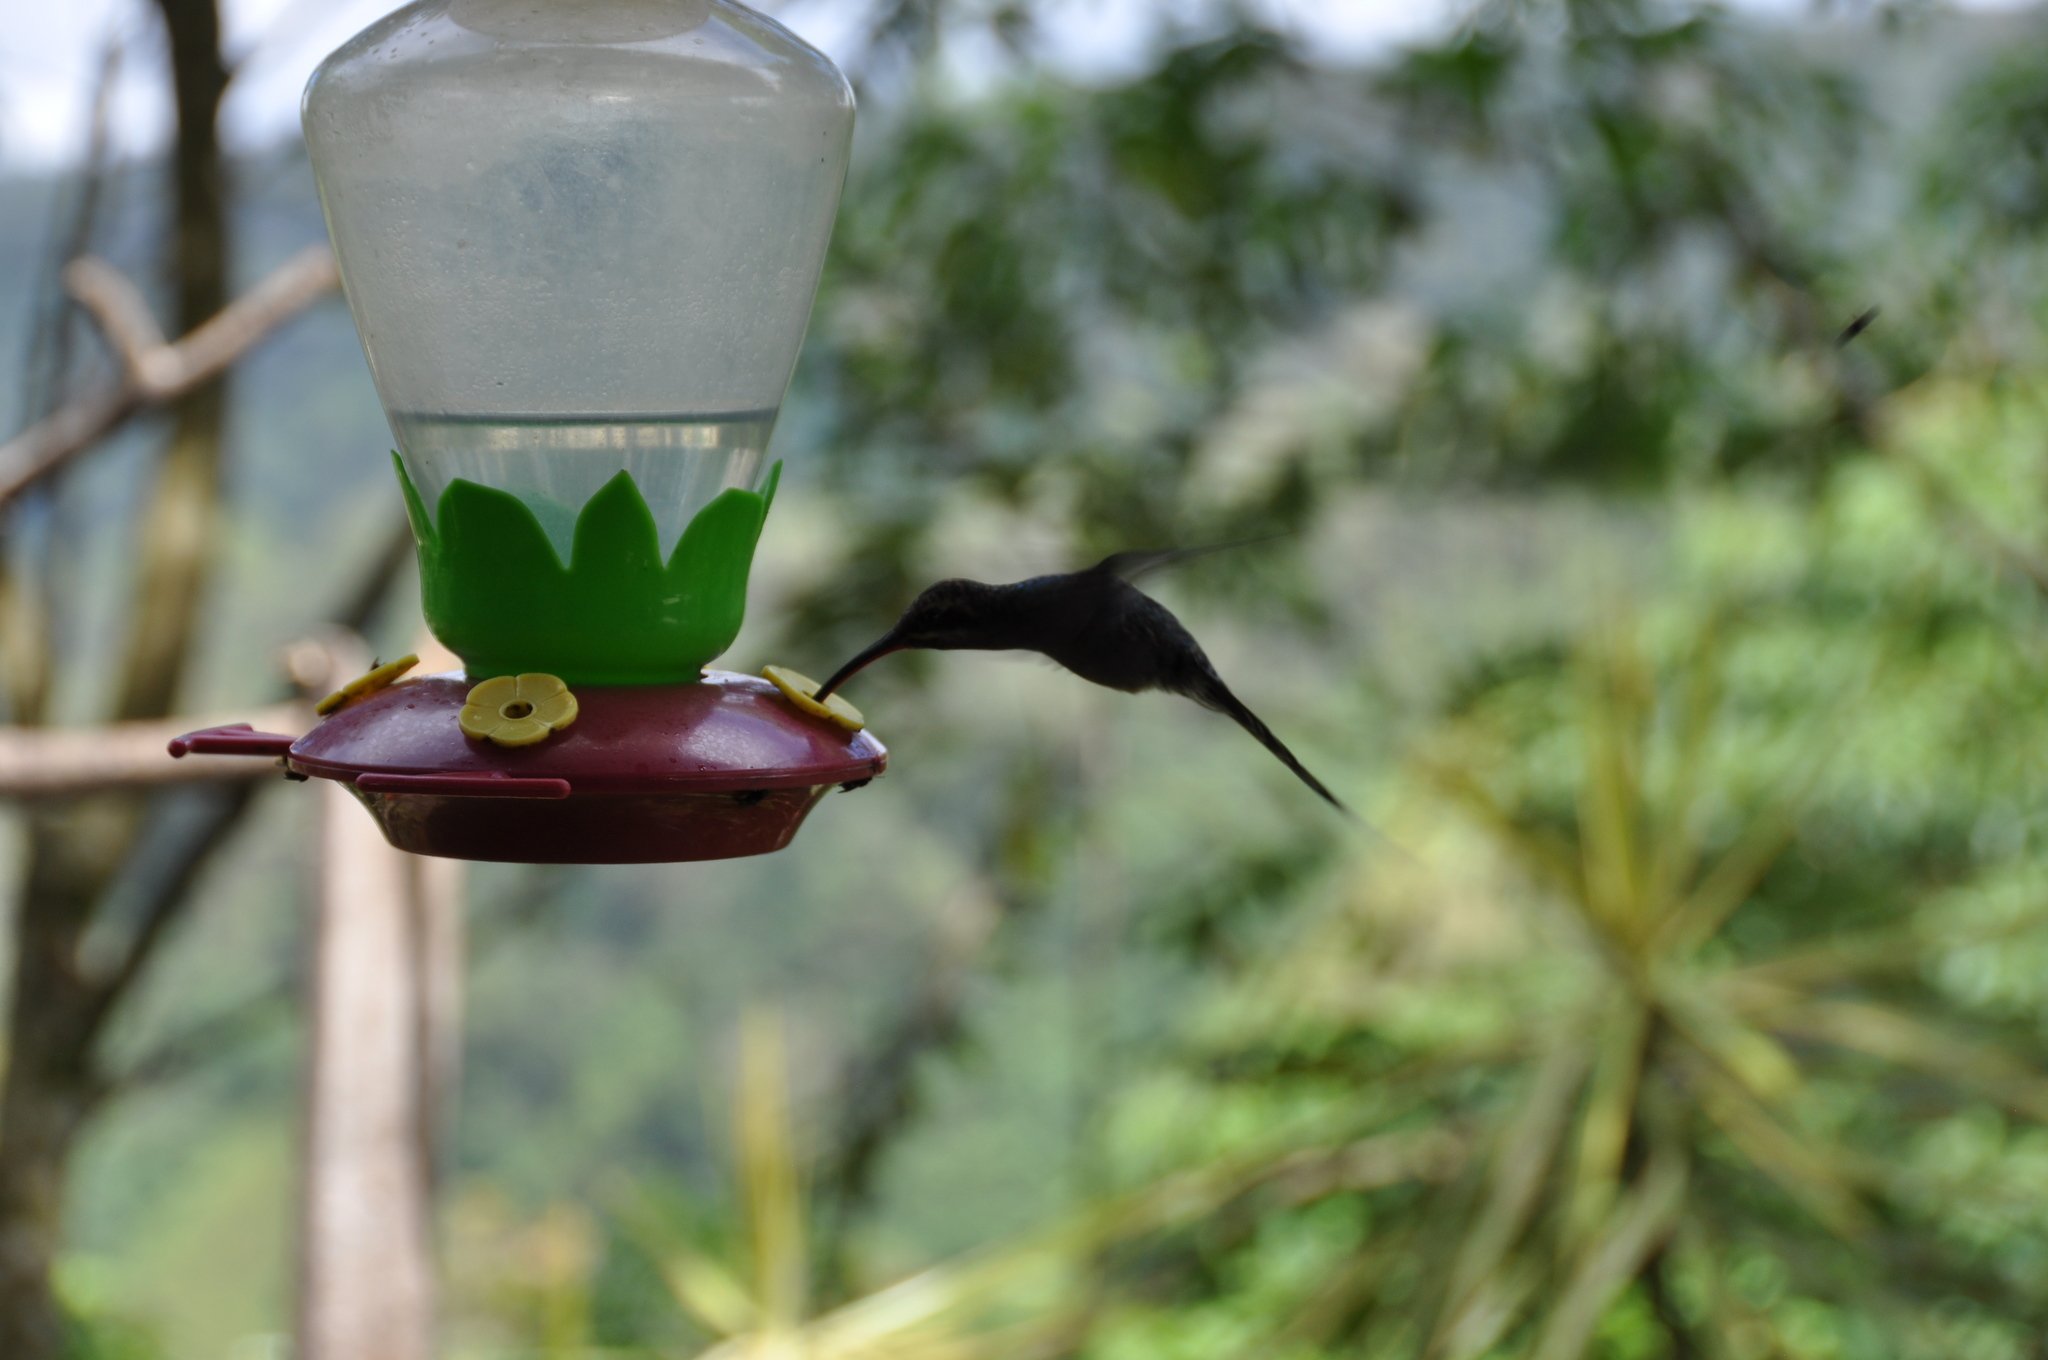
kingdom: Animalia
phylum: Chordata
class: Aves
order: Apodiformes
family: Trochilidae
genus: Phaethornis
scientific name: Phaethornis guy
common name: Green hermit
